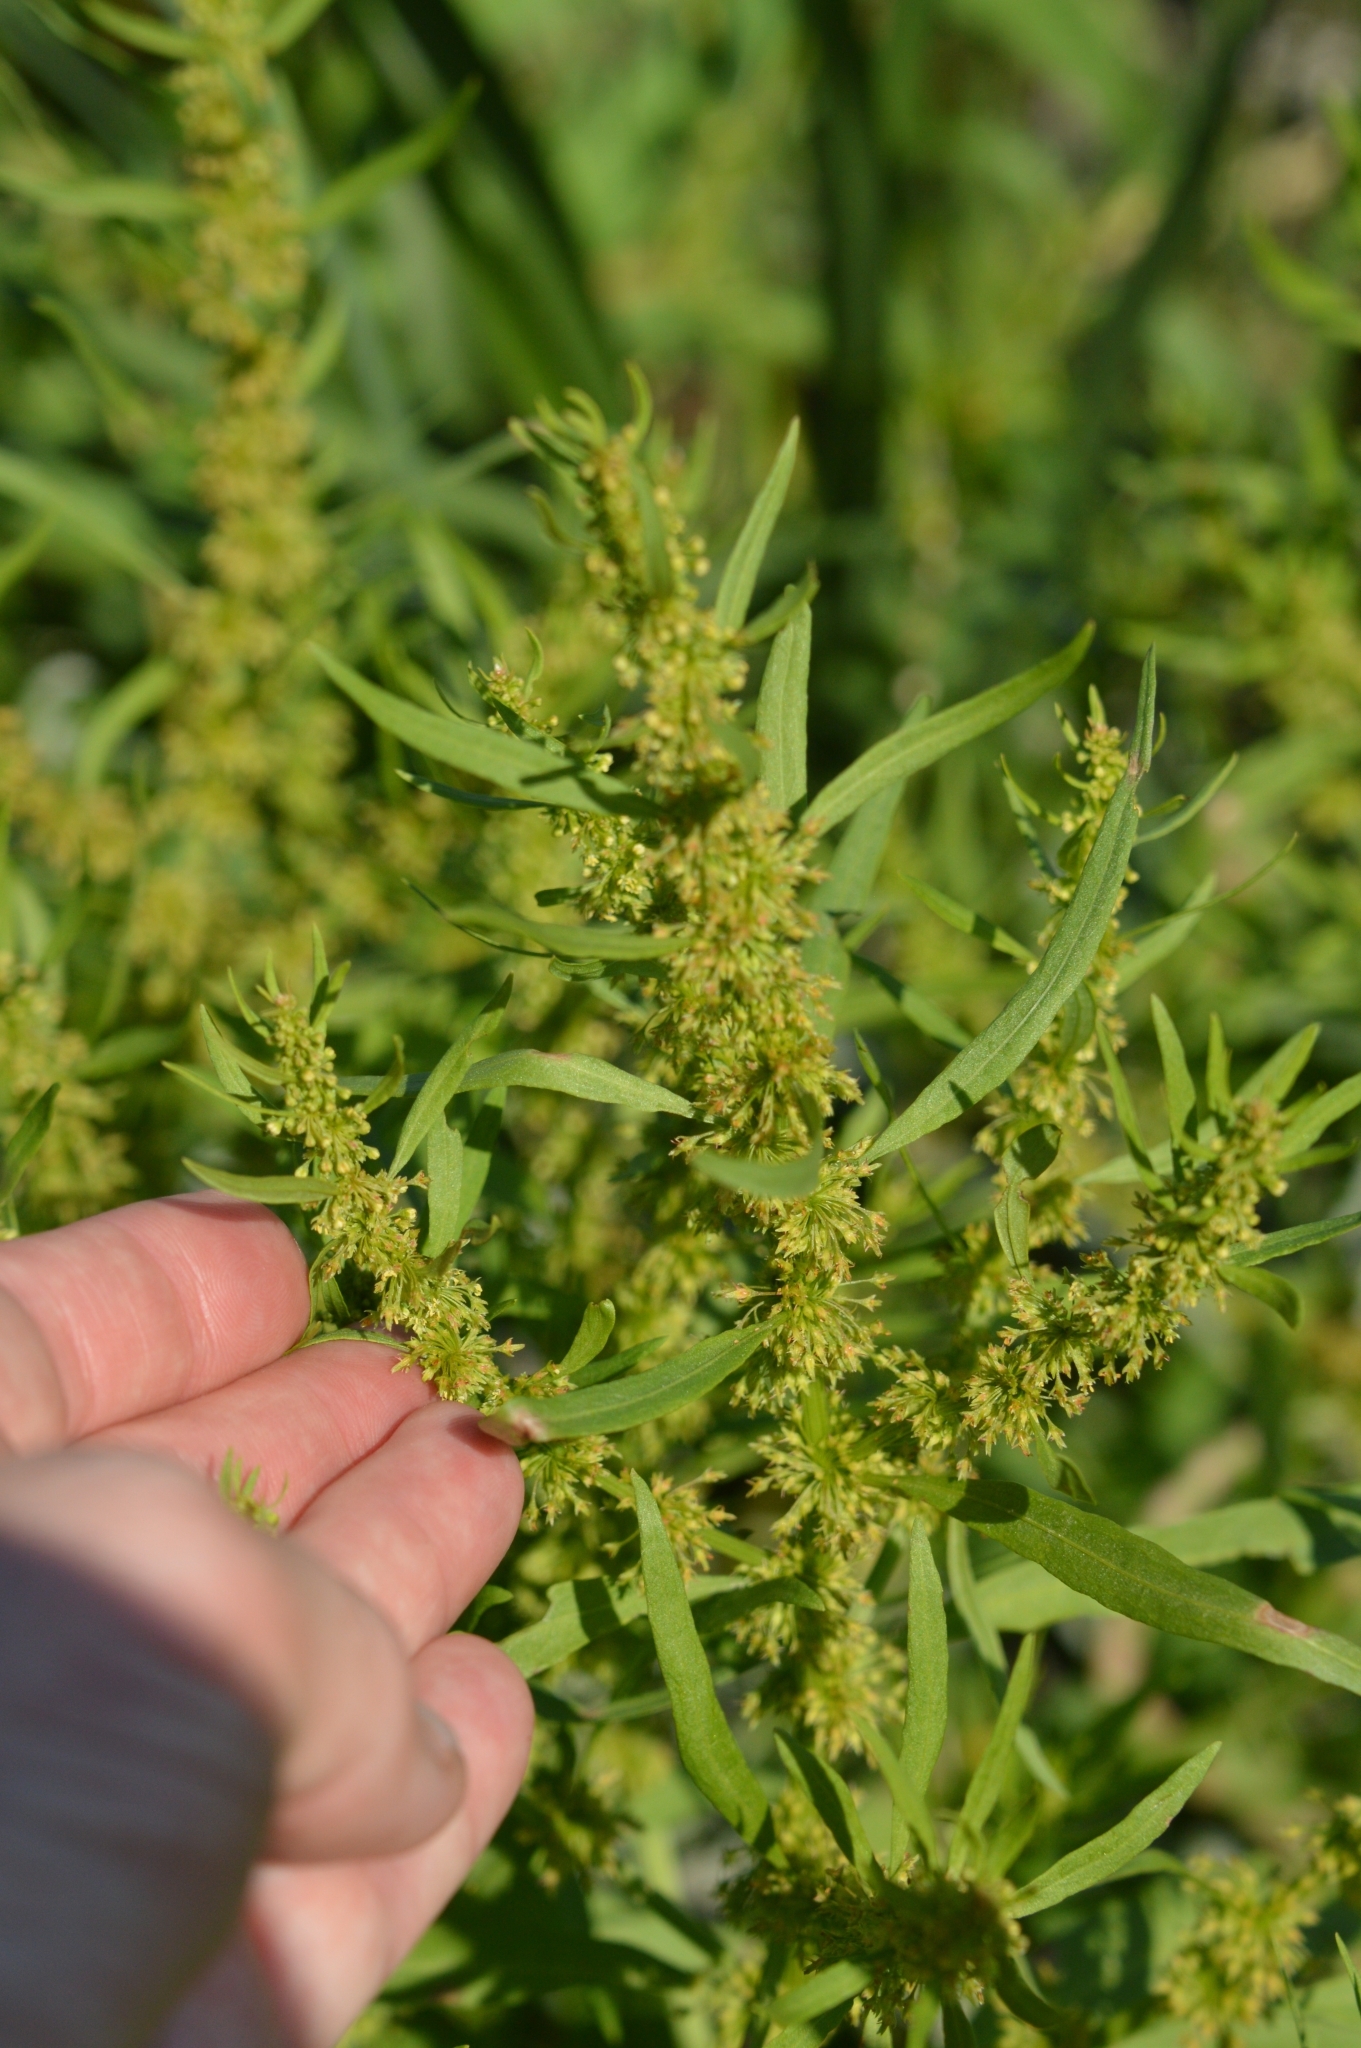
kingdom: Plantae
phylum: Tracheophyta
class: Magnoliopsida
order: Caryophyllales
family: Polygonaceae
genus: Rumex
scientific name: Rumex maritimus
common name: Golden dock
